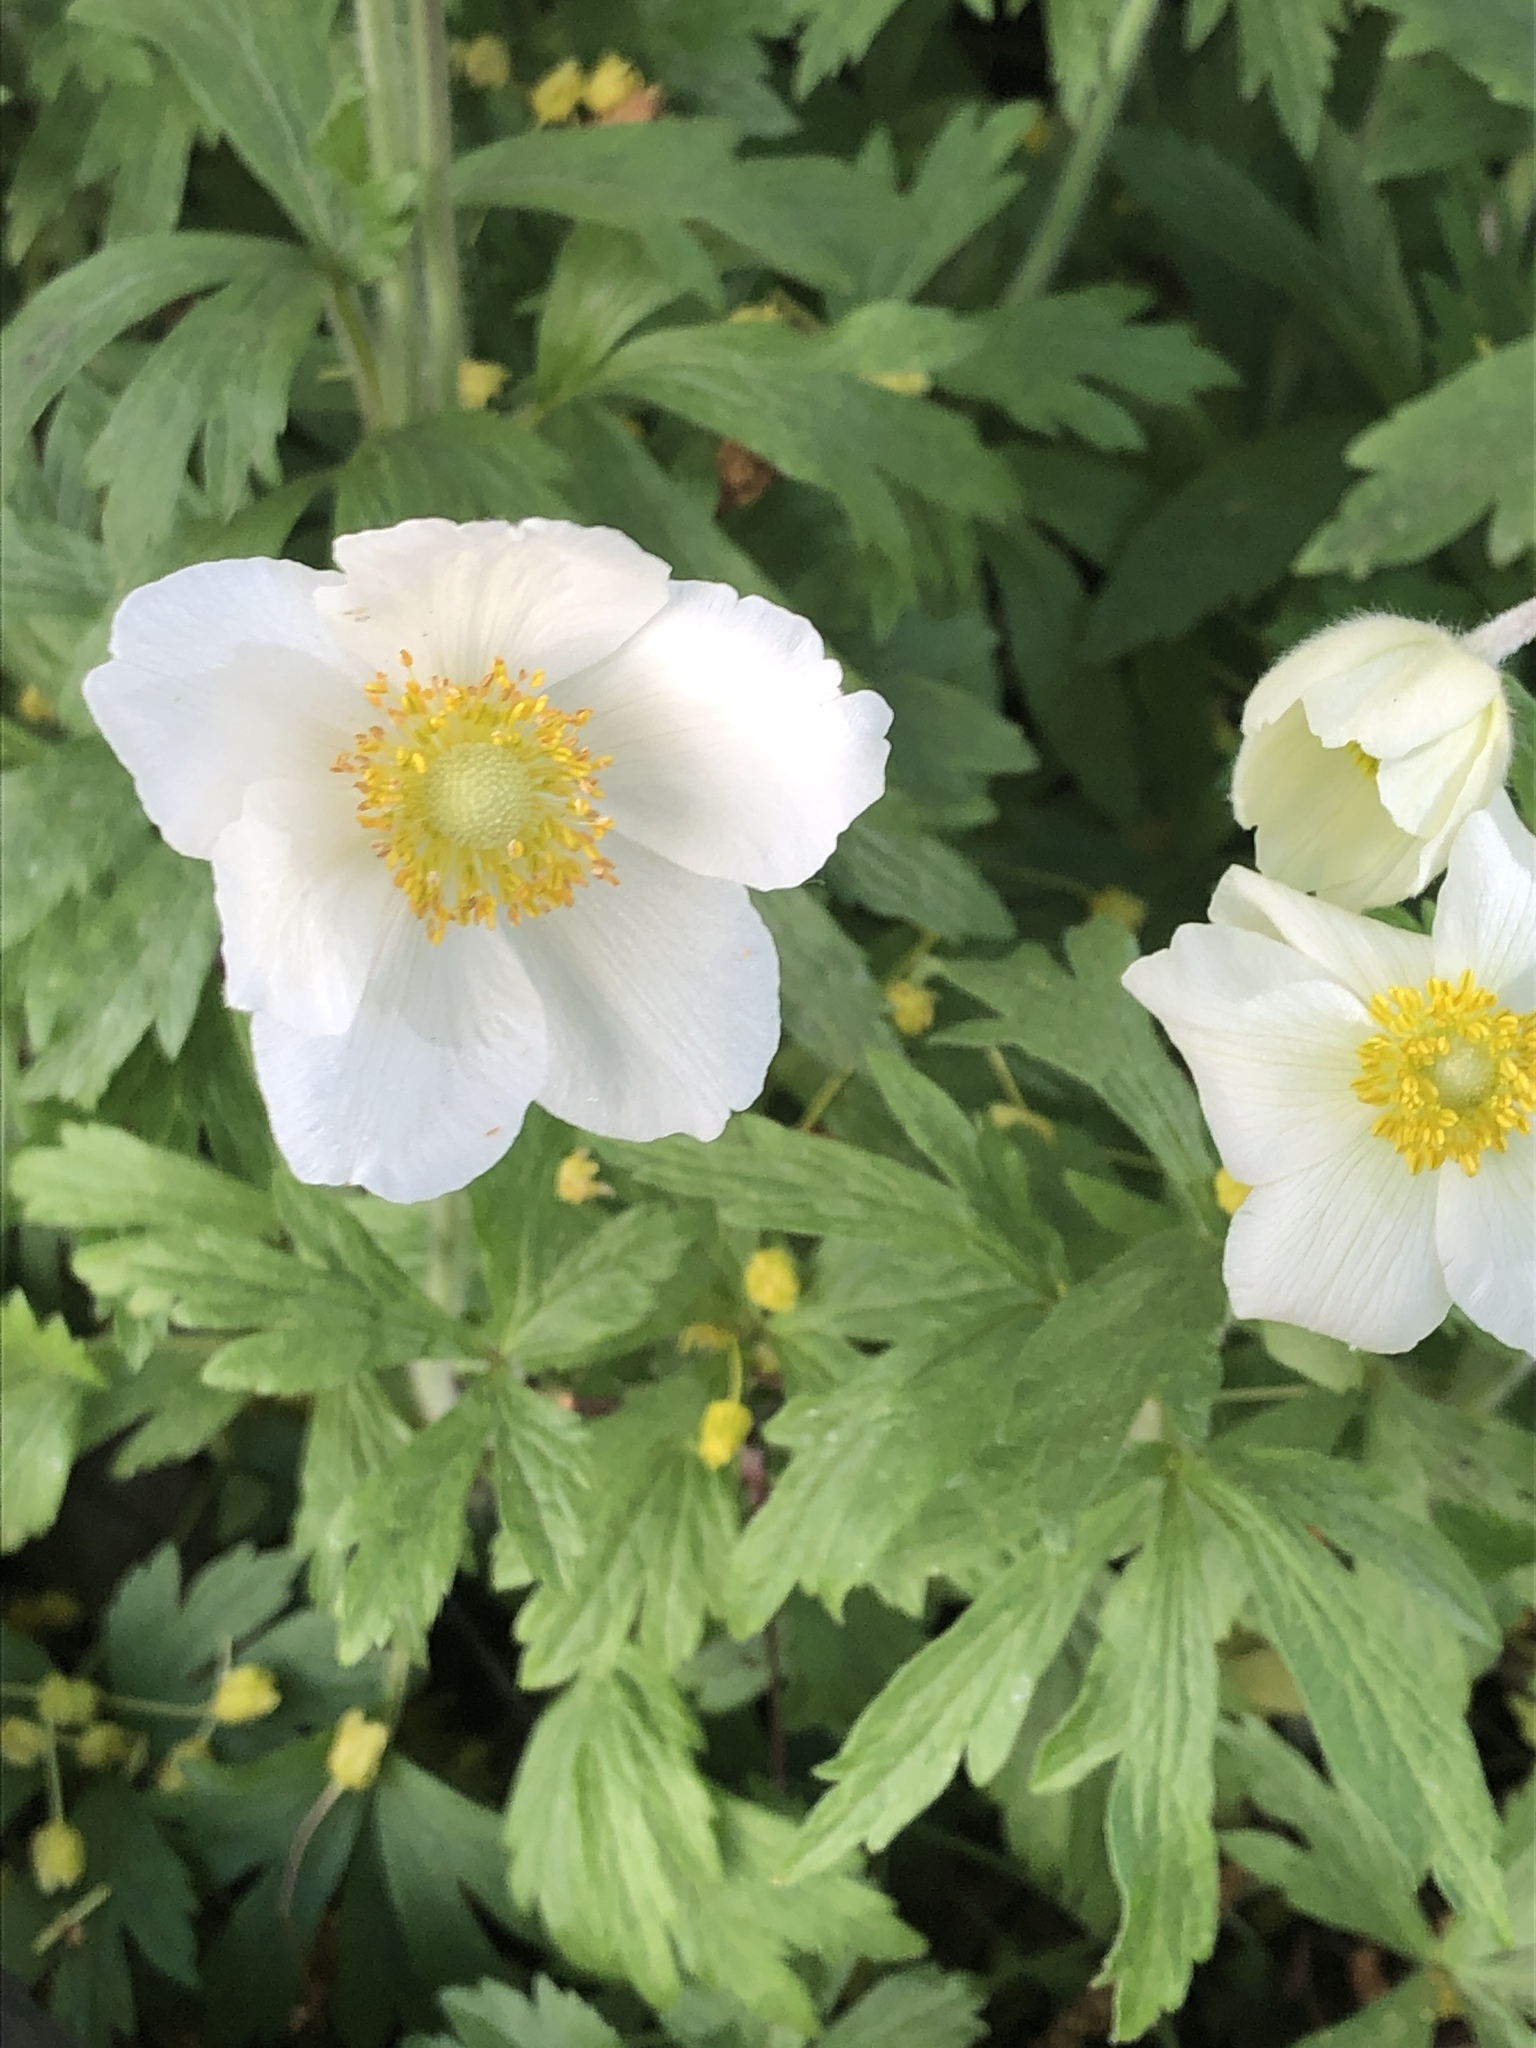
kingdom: Plantae
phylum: Tracheophyta
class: Magnoliopsida
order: Ranunculales
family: Ranunculaceae
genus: Anemone
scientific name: Anemone sylvestris
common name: Snowdrop anemone
